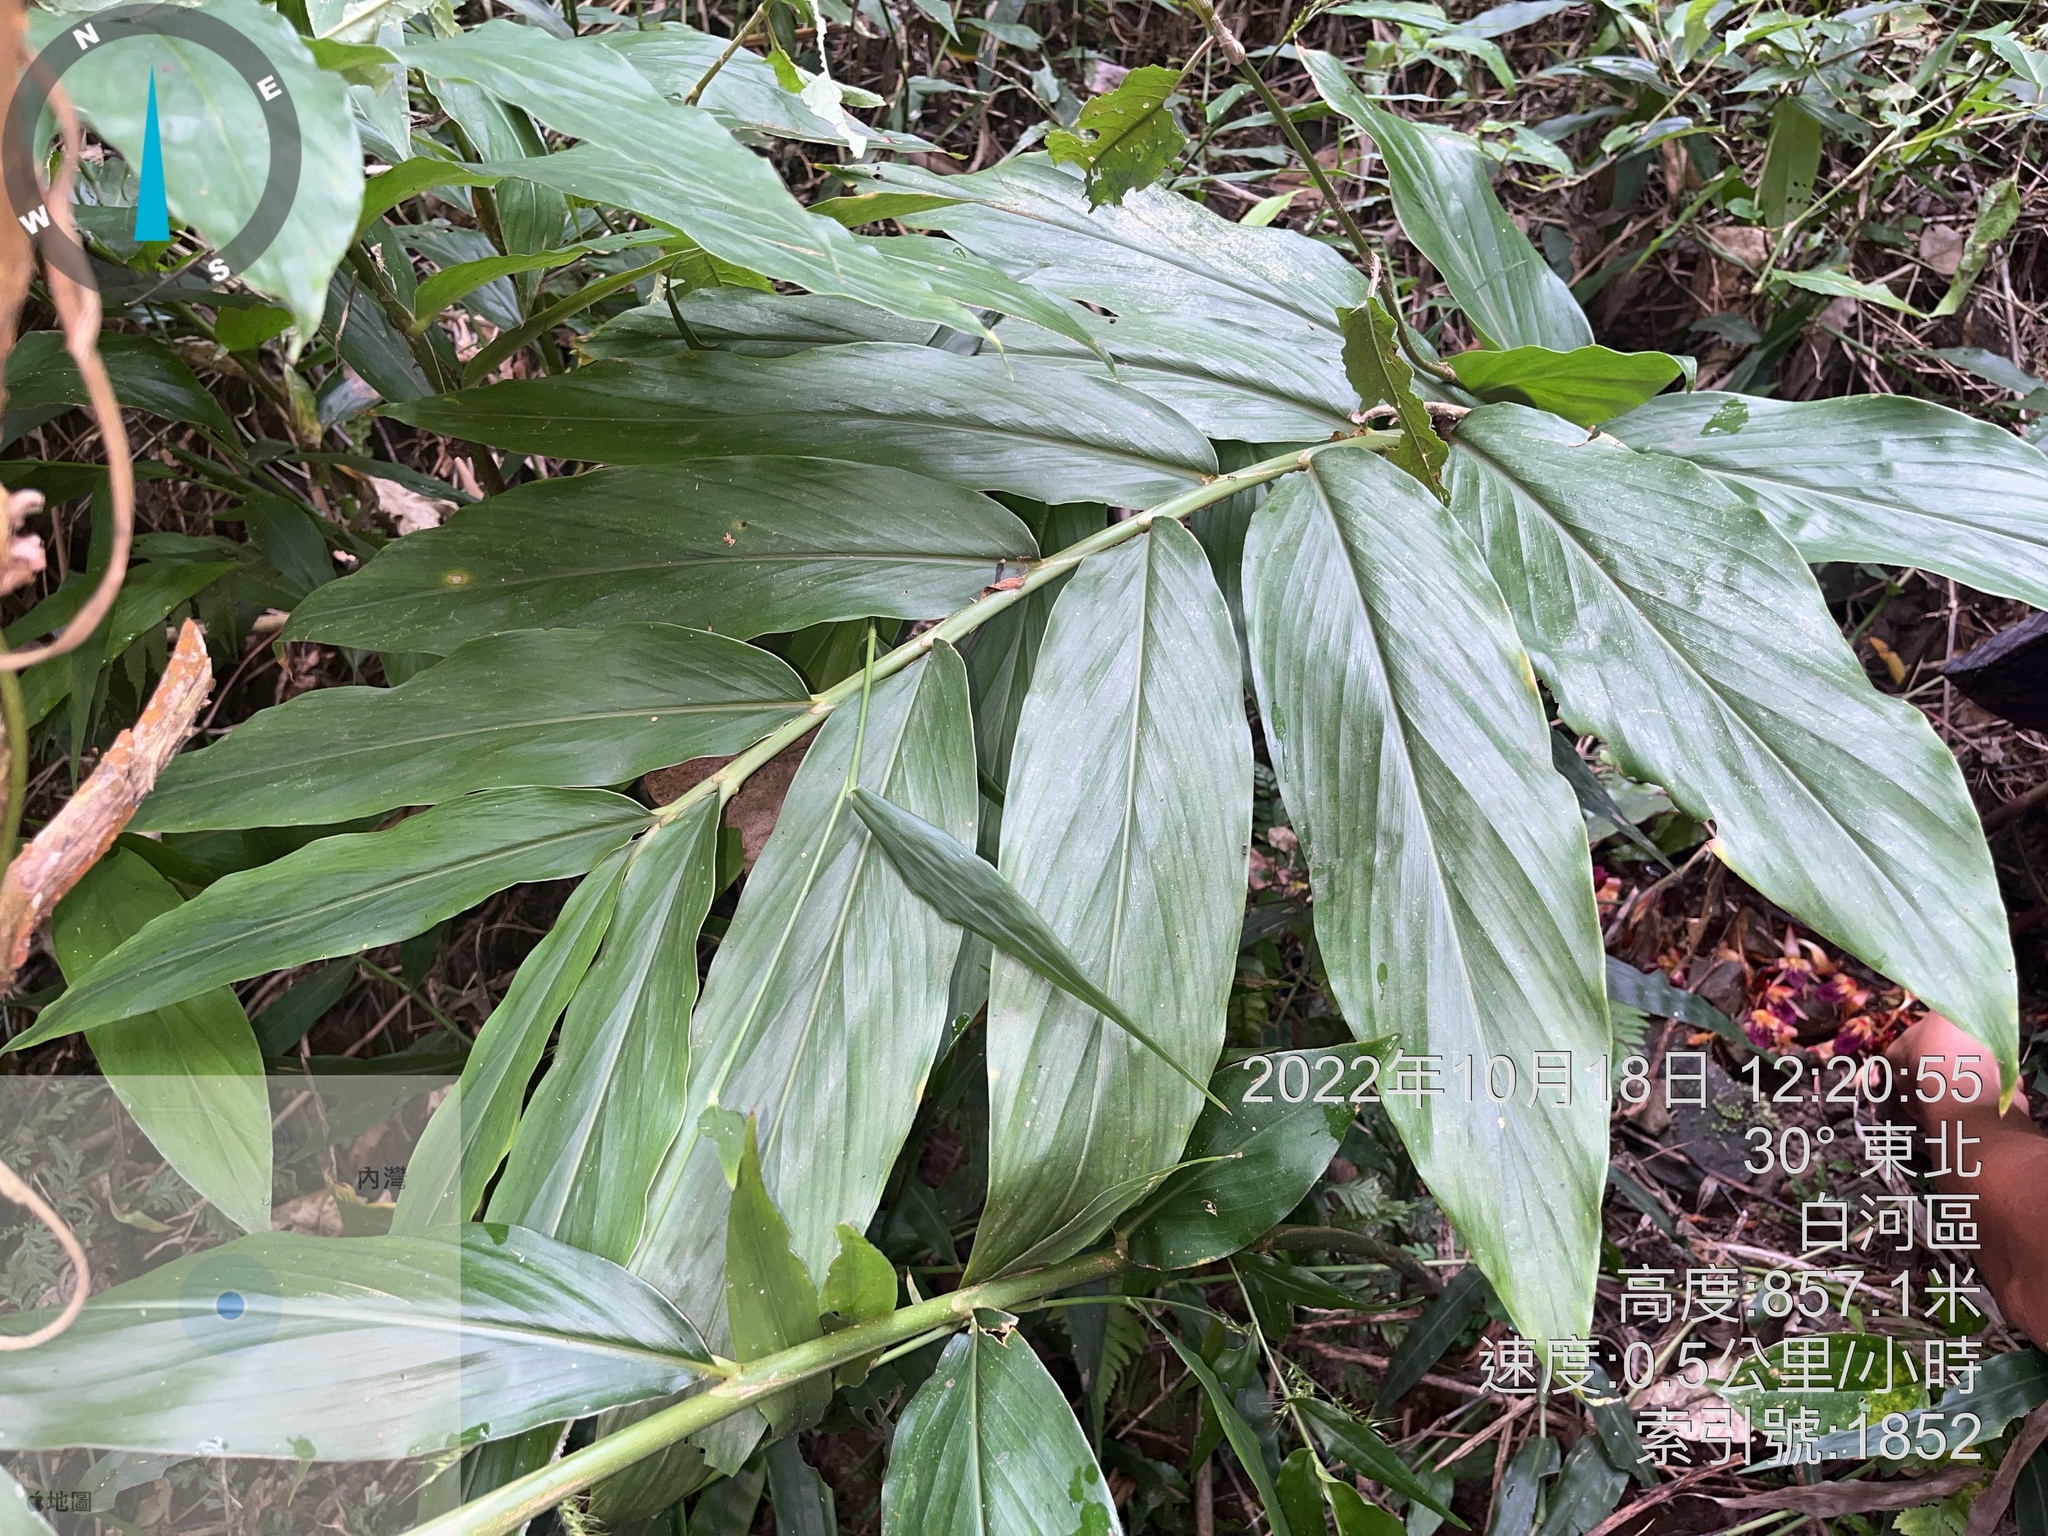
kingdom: Plantae
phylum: Tracheophyta
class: Liliopsida
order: Zingiberales
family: Zingiberaceae
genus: Zingiber
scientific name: Zingiber kawagoii
